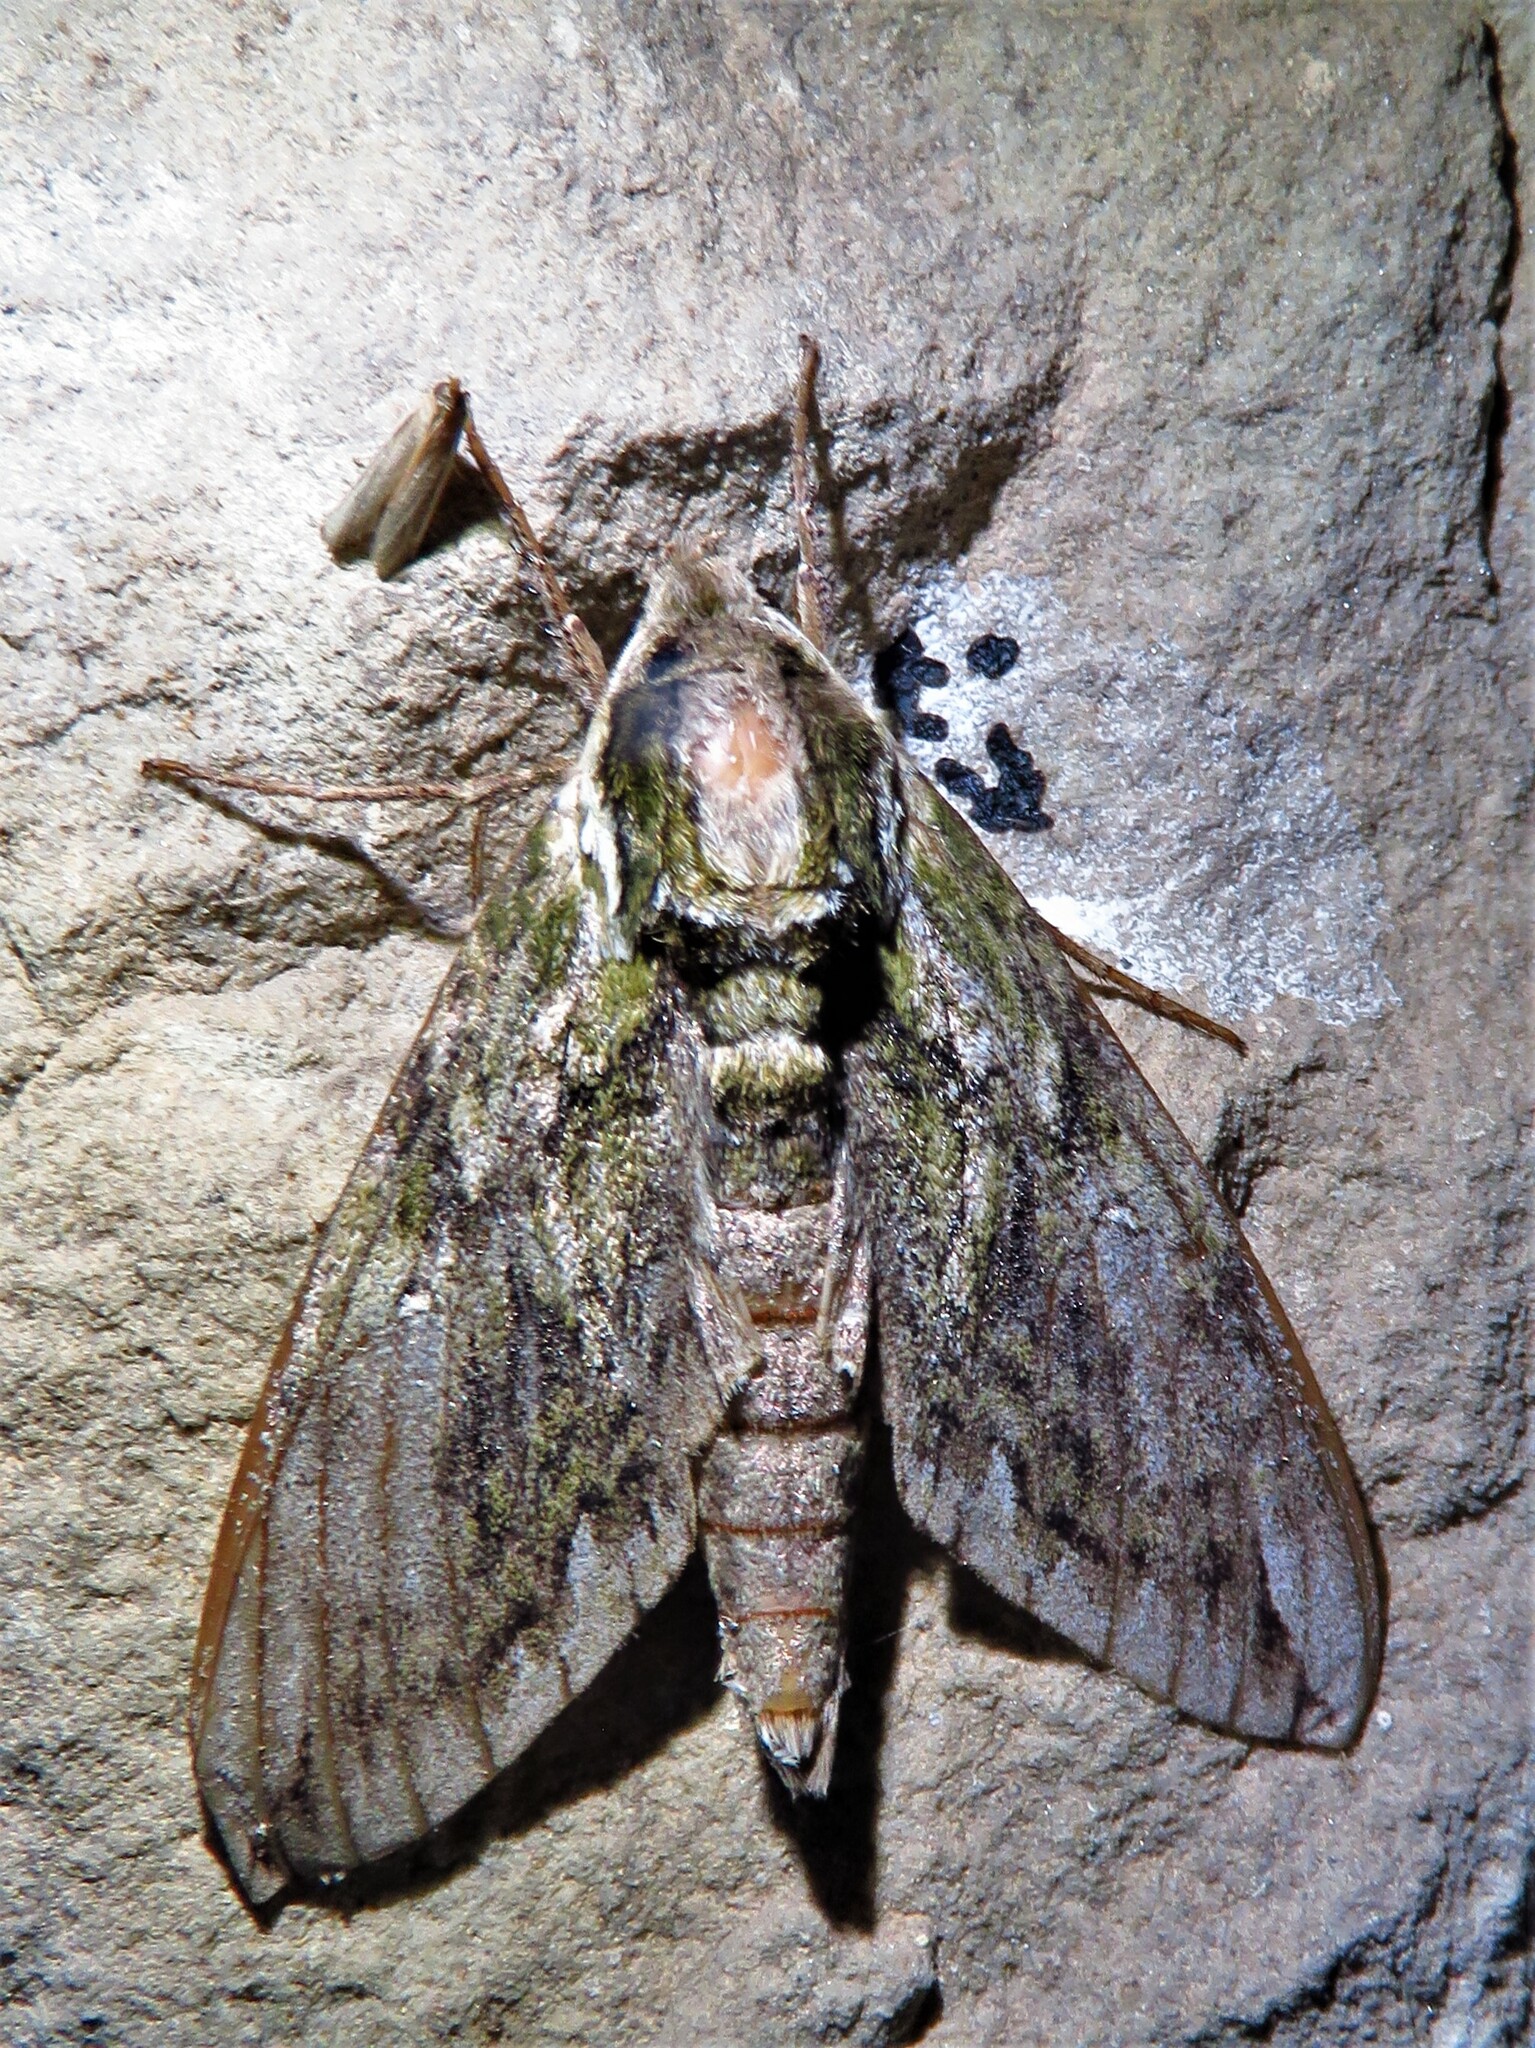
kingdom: Animalia
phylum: Arthropoda
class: Insecta
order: Lepidoptera
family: Sphingidae
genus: Ceratomia
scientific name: Ceratomia hageni
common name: Hagen's sphinx
